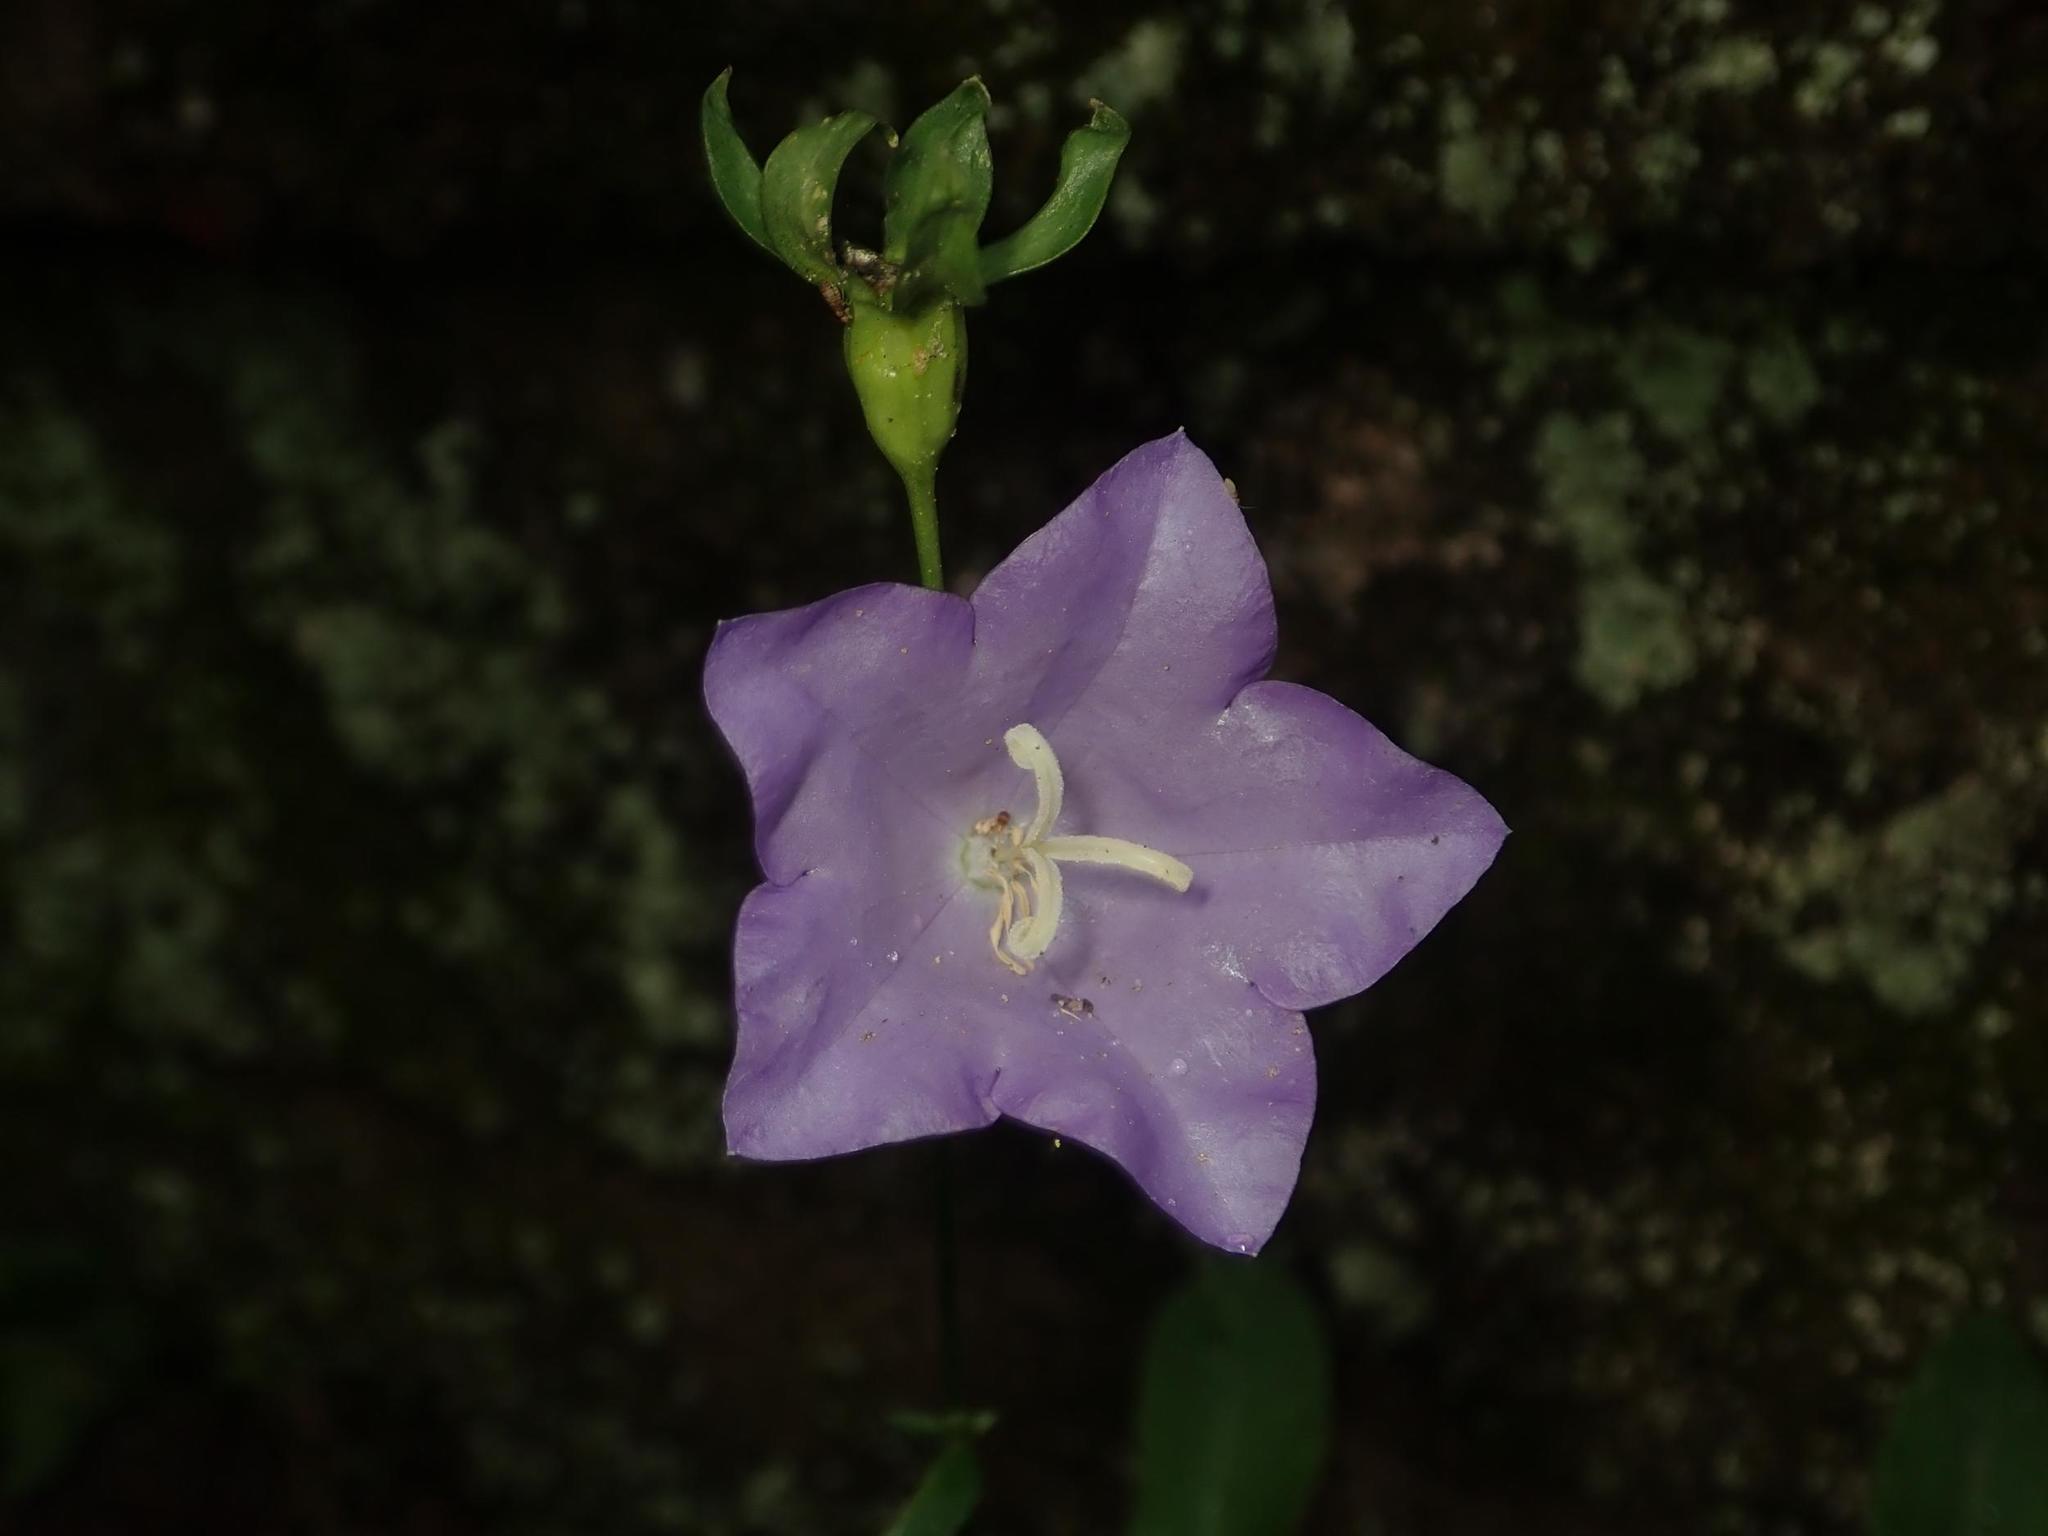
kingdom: Plantae
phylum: Tracheophyta
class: Magnoliopsida
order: Asterales
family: Campanulaceae
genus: Campanula
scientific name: Campanula persicifolia
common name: Peach-leaved bellflower
